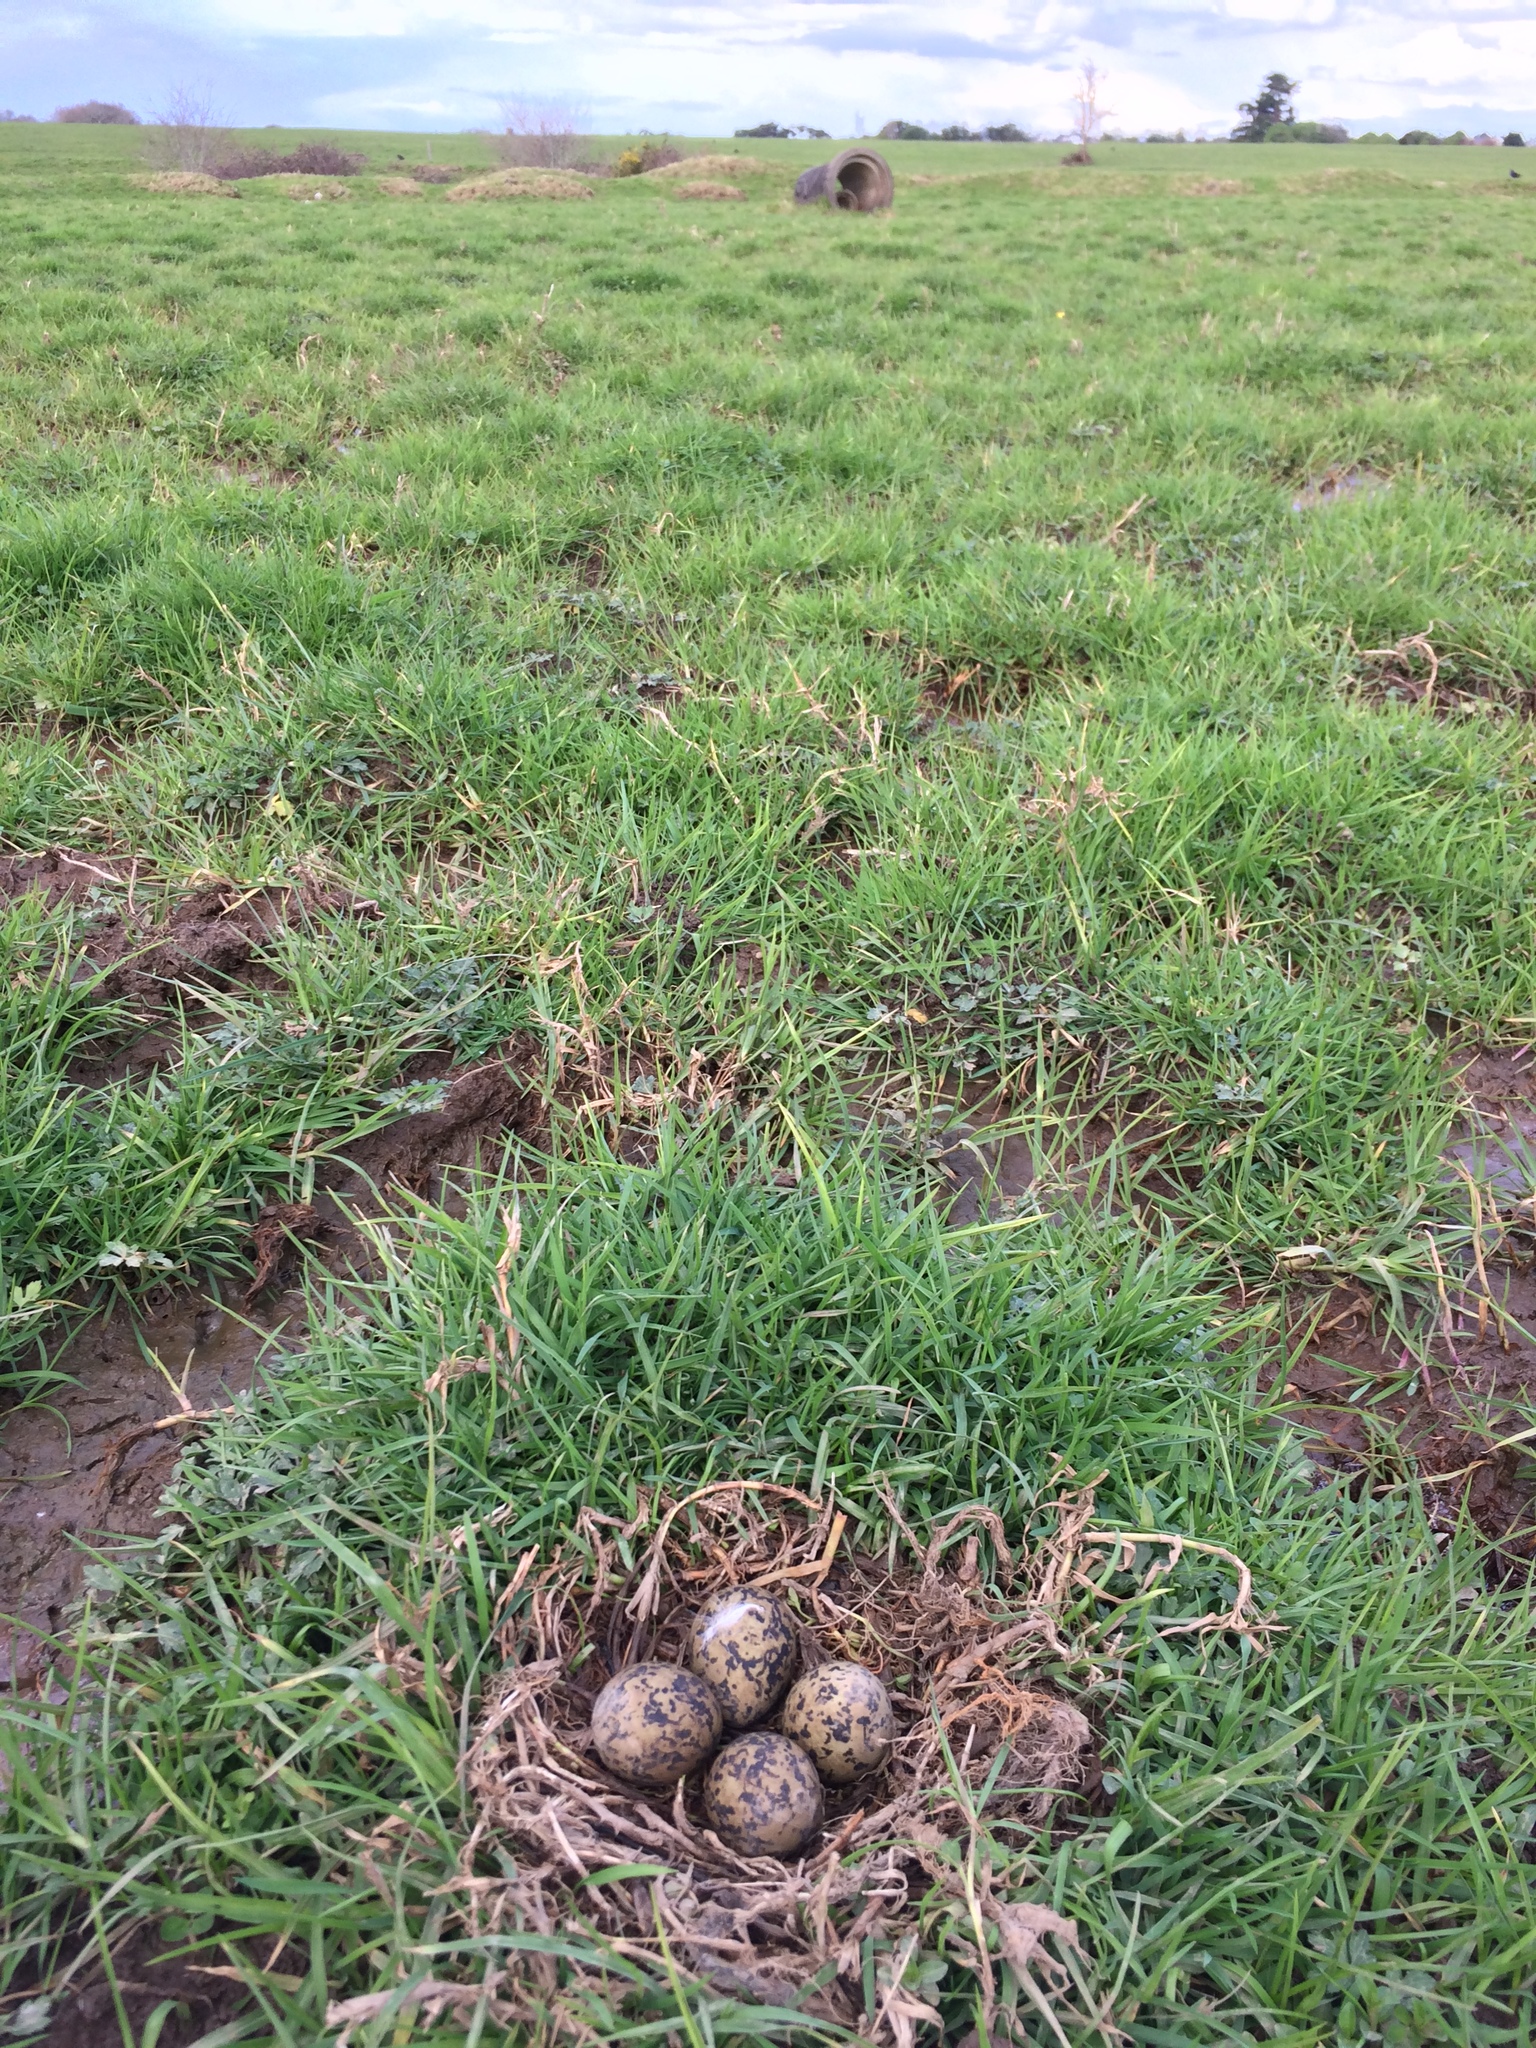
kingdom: Animalia
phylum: Chordata
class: Aves
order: Charadriiformes
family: Recurvirostridae
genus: Himantopus
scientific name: Himantopus leucocephalus
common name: White-headed stilt
